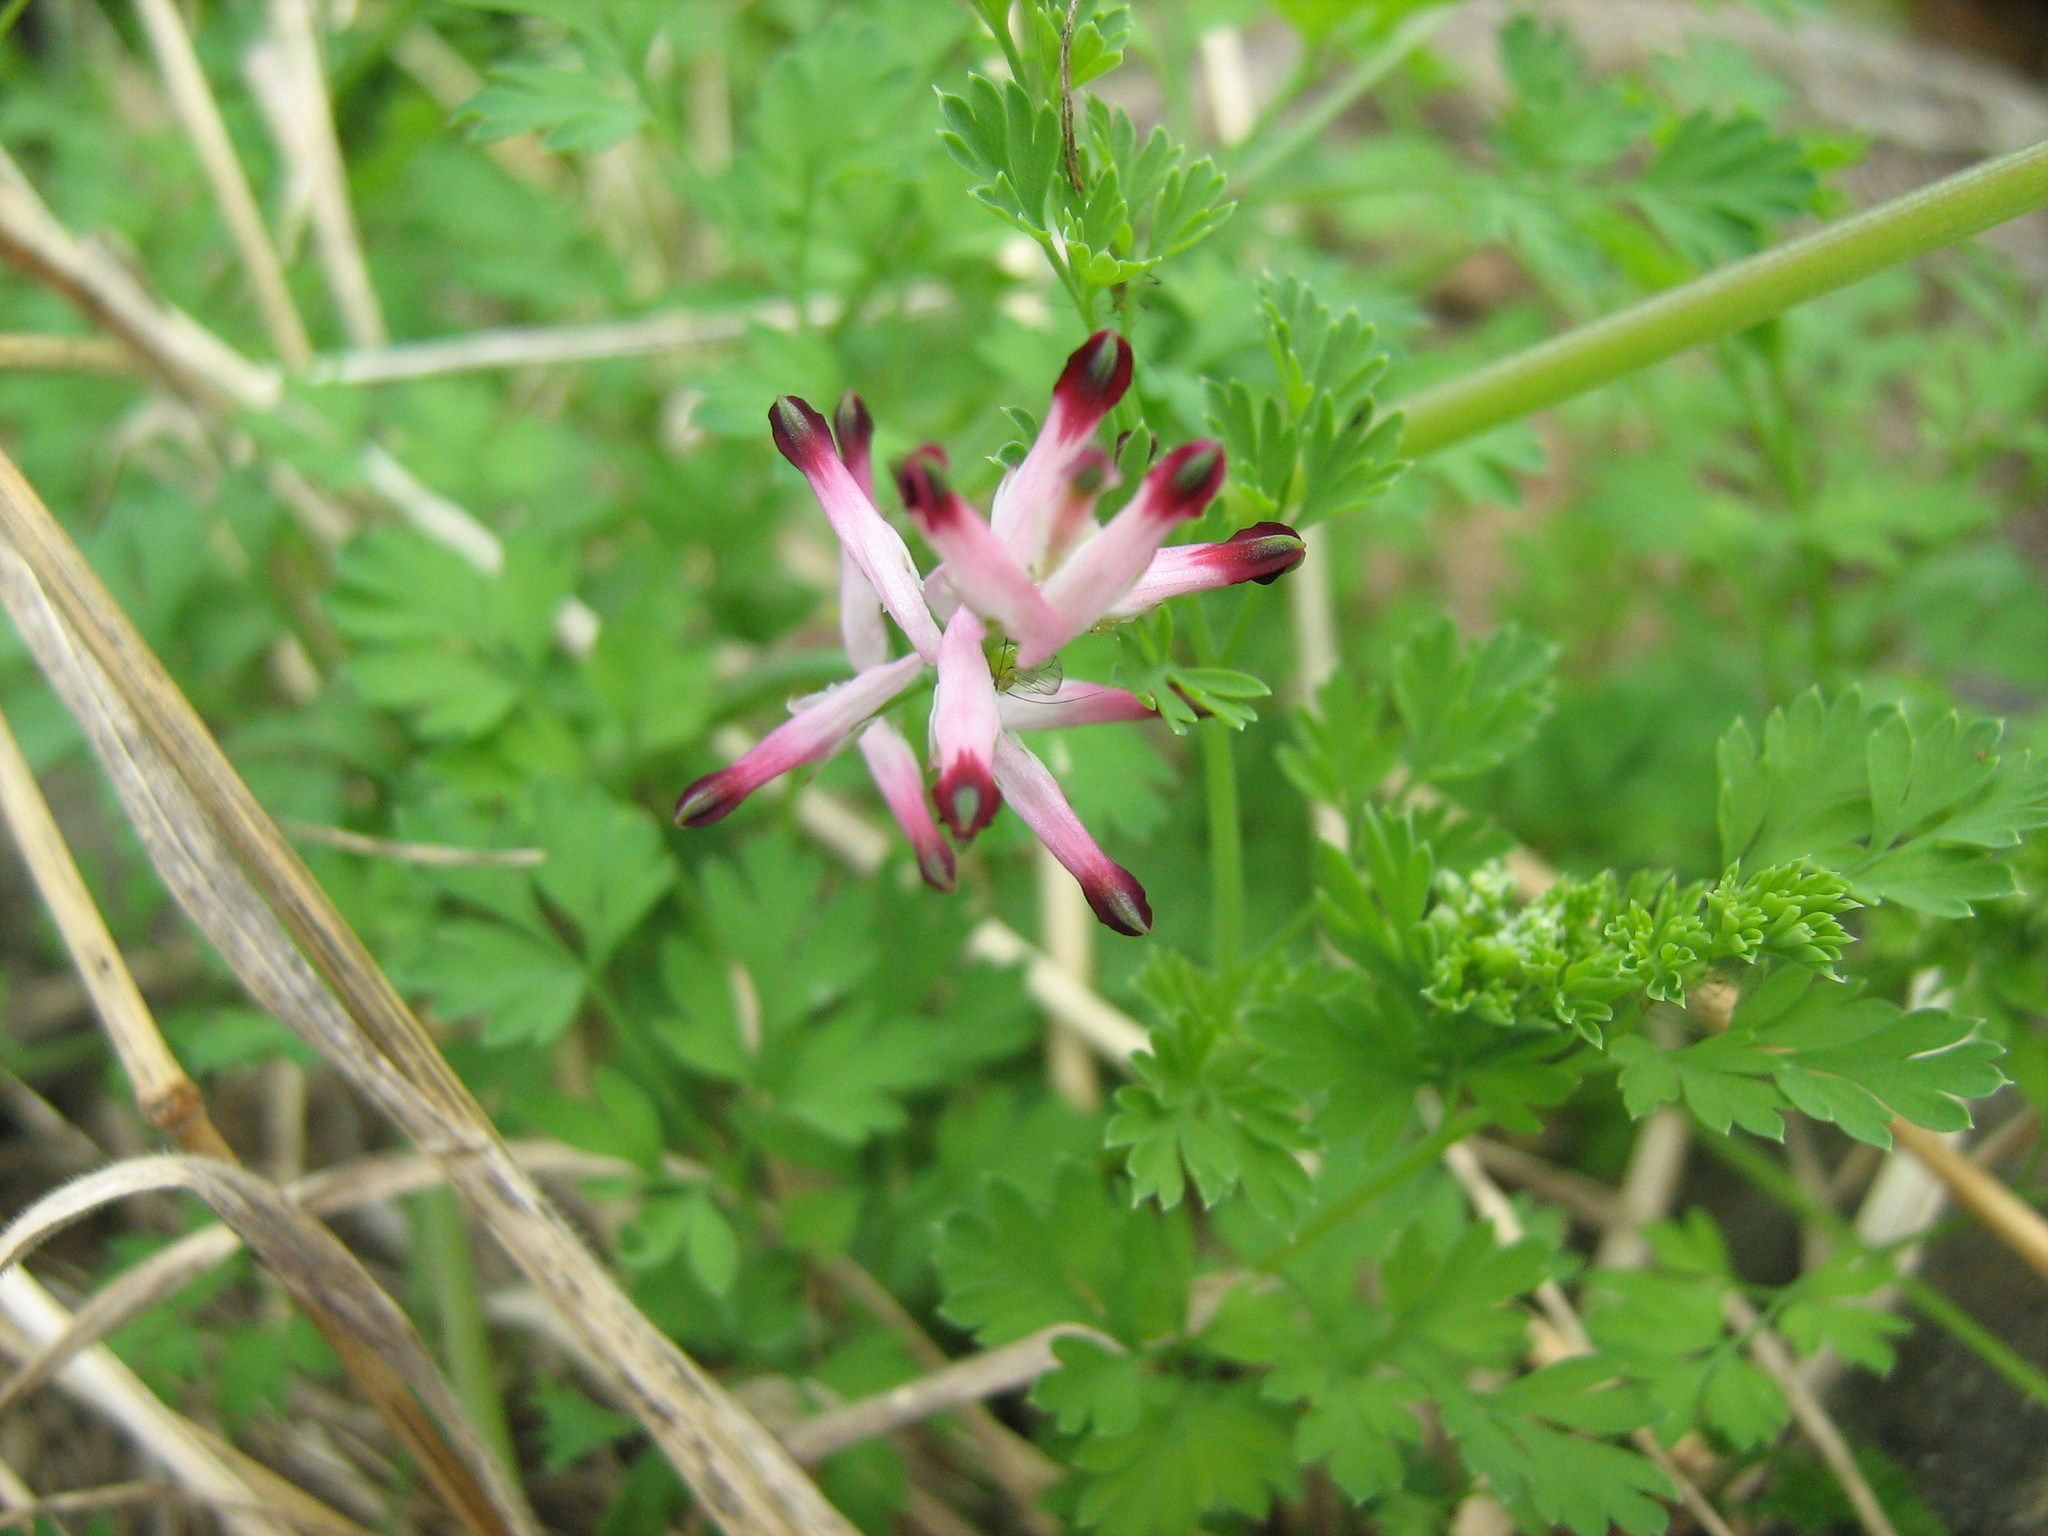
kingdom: Plantae
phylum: Tracheophyta
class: Magnoliopsida
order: Ranunculales
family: Papaveraceae
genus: Fumaria
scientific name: Fumaria muralis
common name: Common ramping-fumitory
